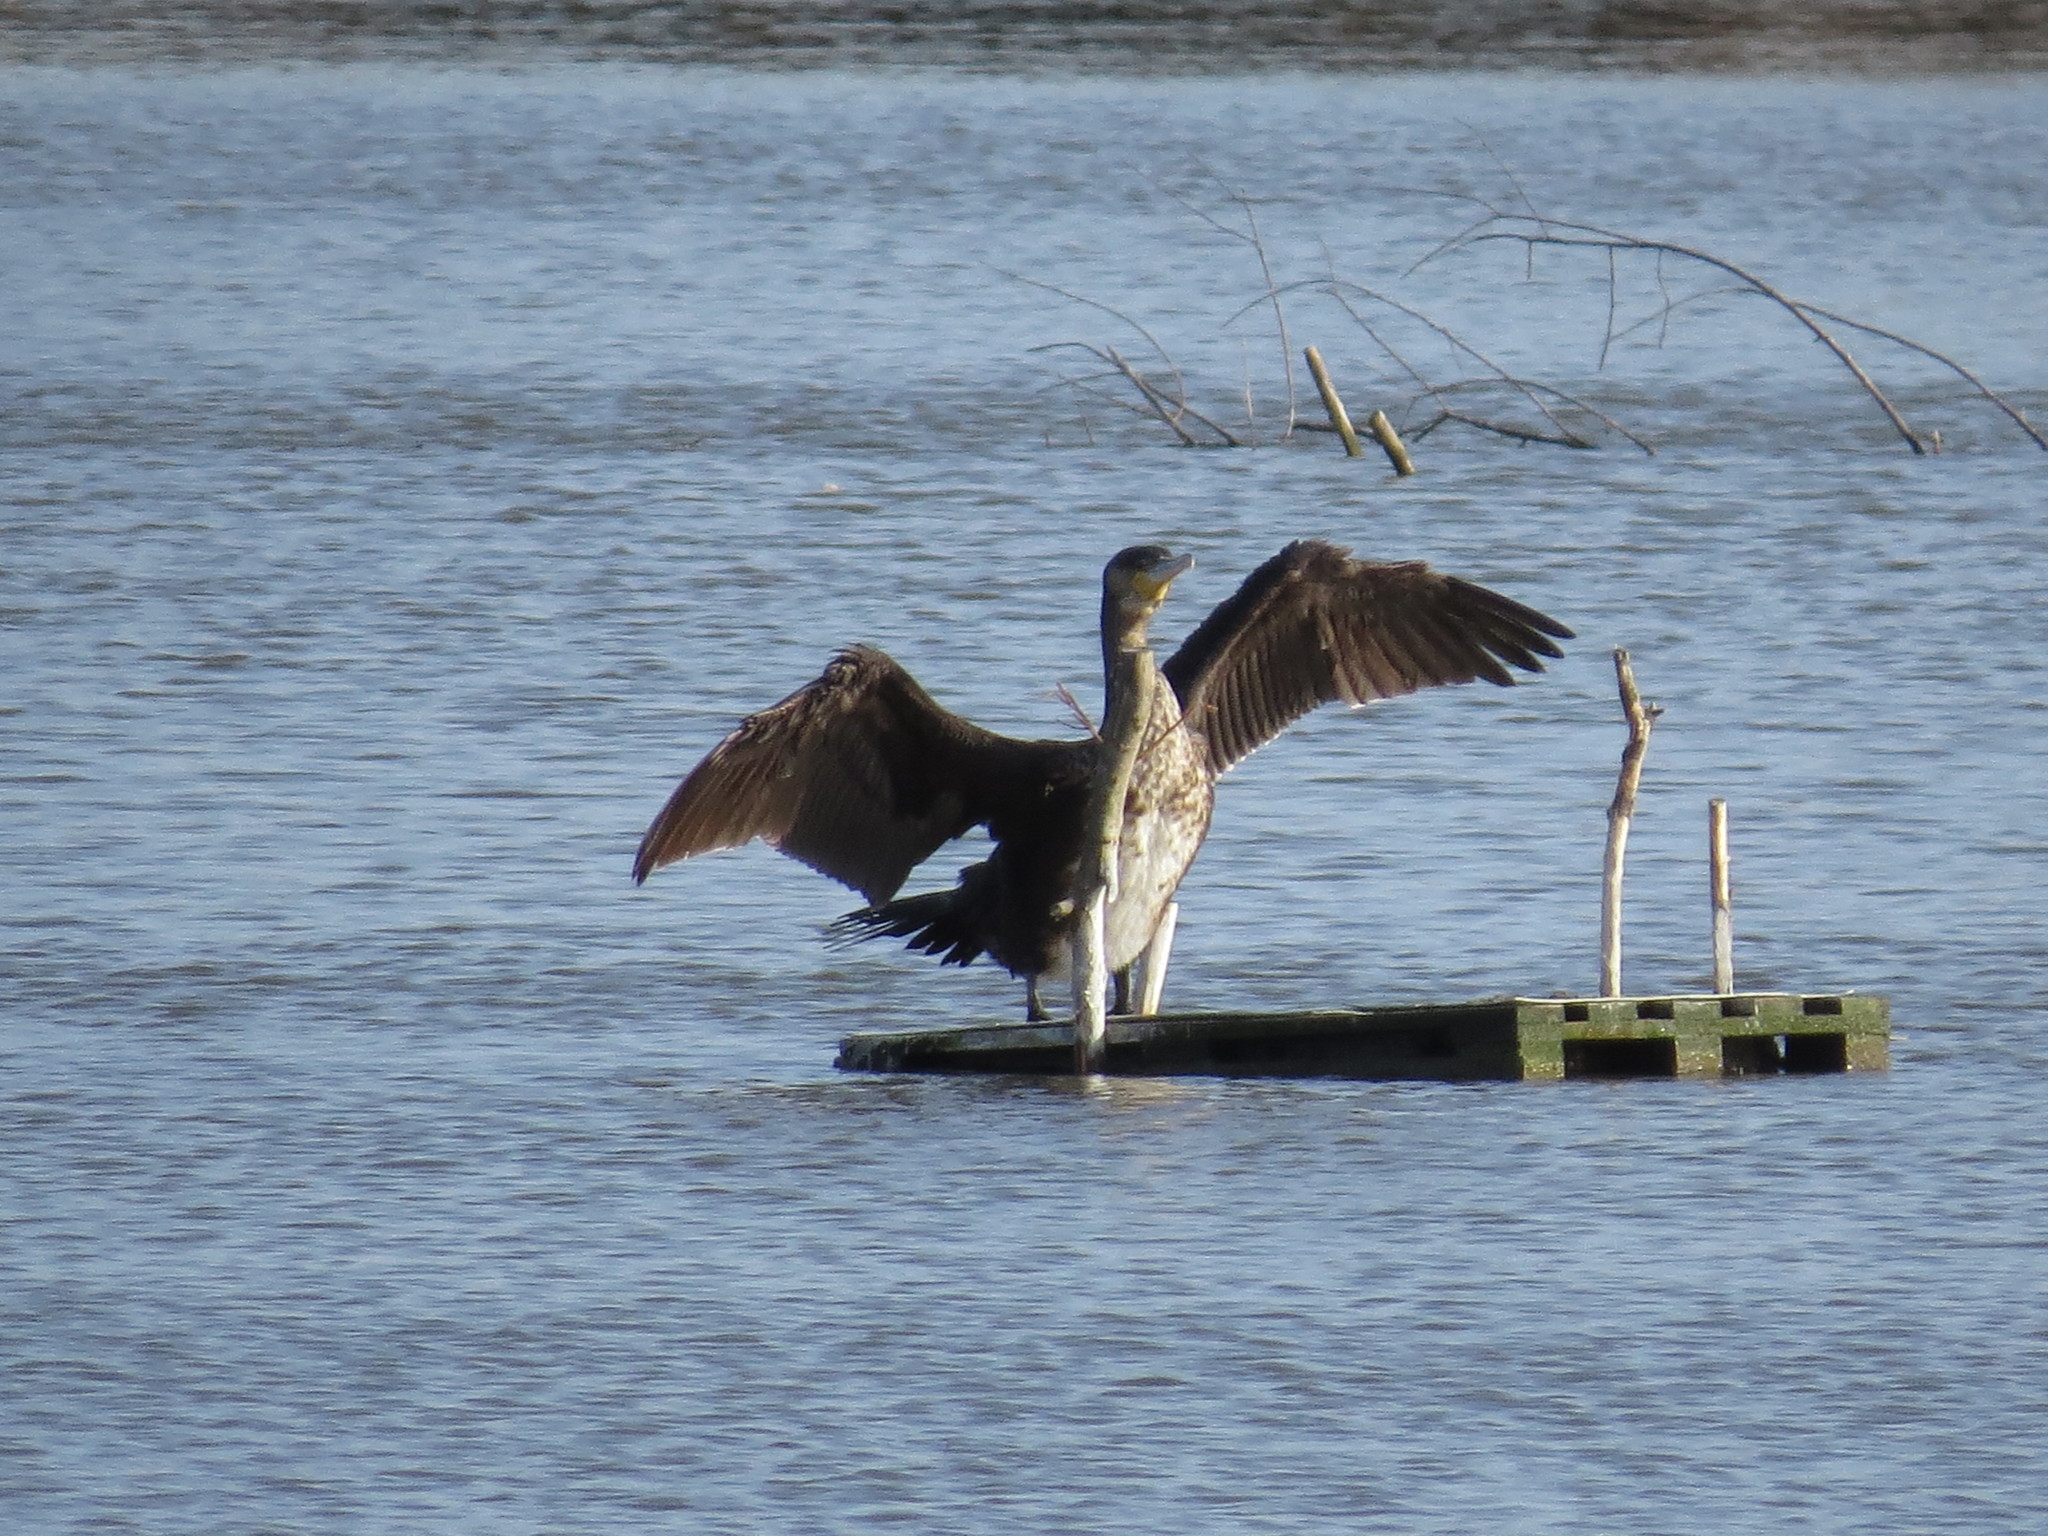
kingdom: Animalia
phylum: Chordata
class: Aves
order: Suliformes
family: Phalacrocoracidae
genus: Phalacrocorax
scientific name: Phalacrocorax carbo
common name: Great cormorant
